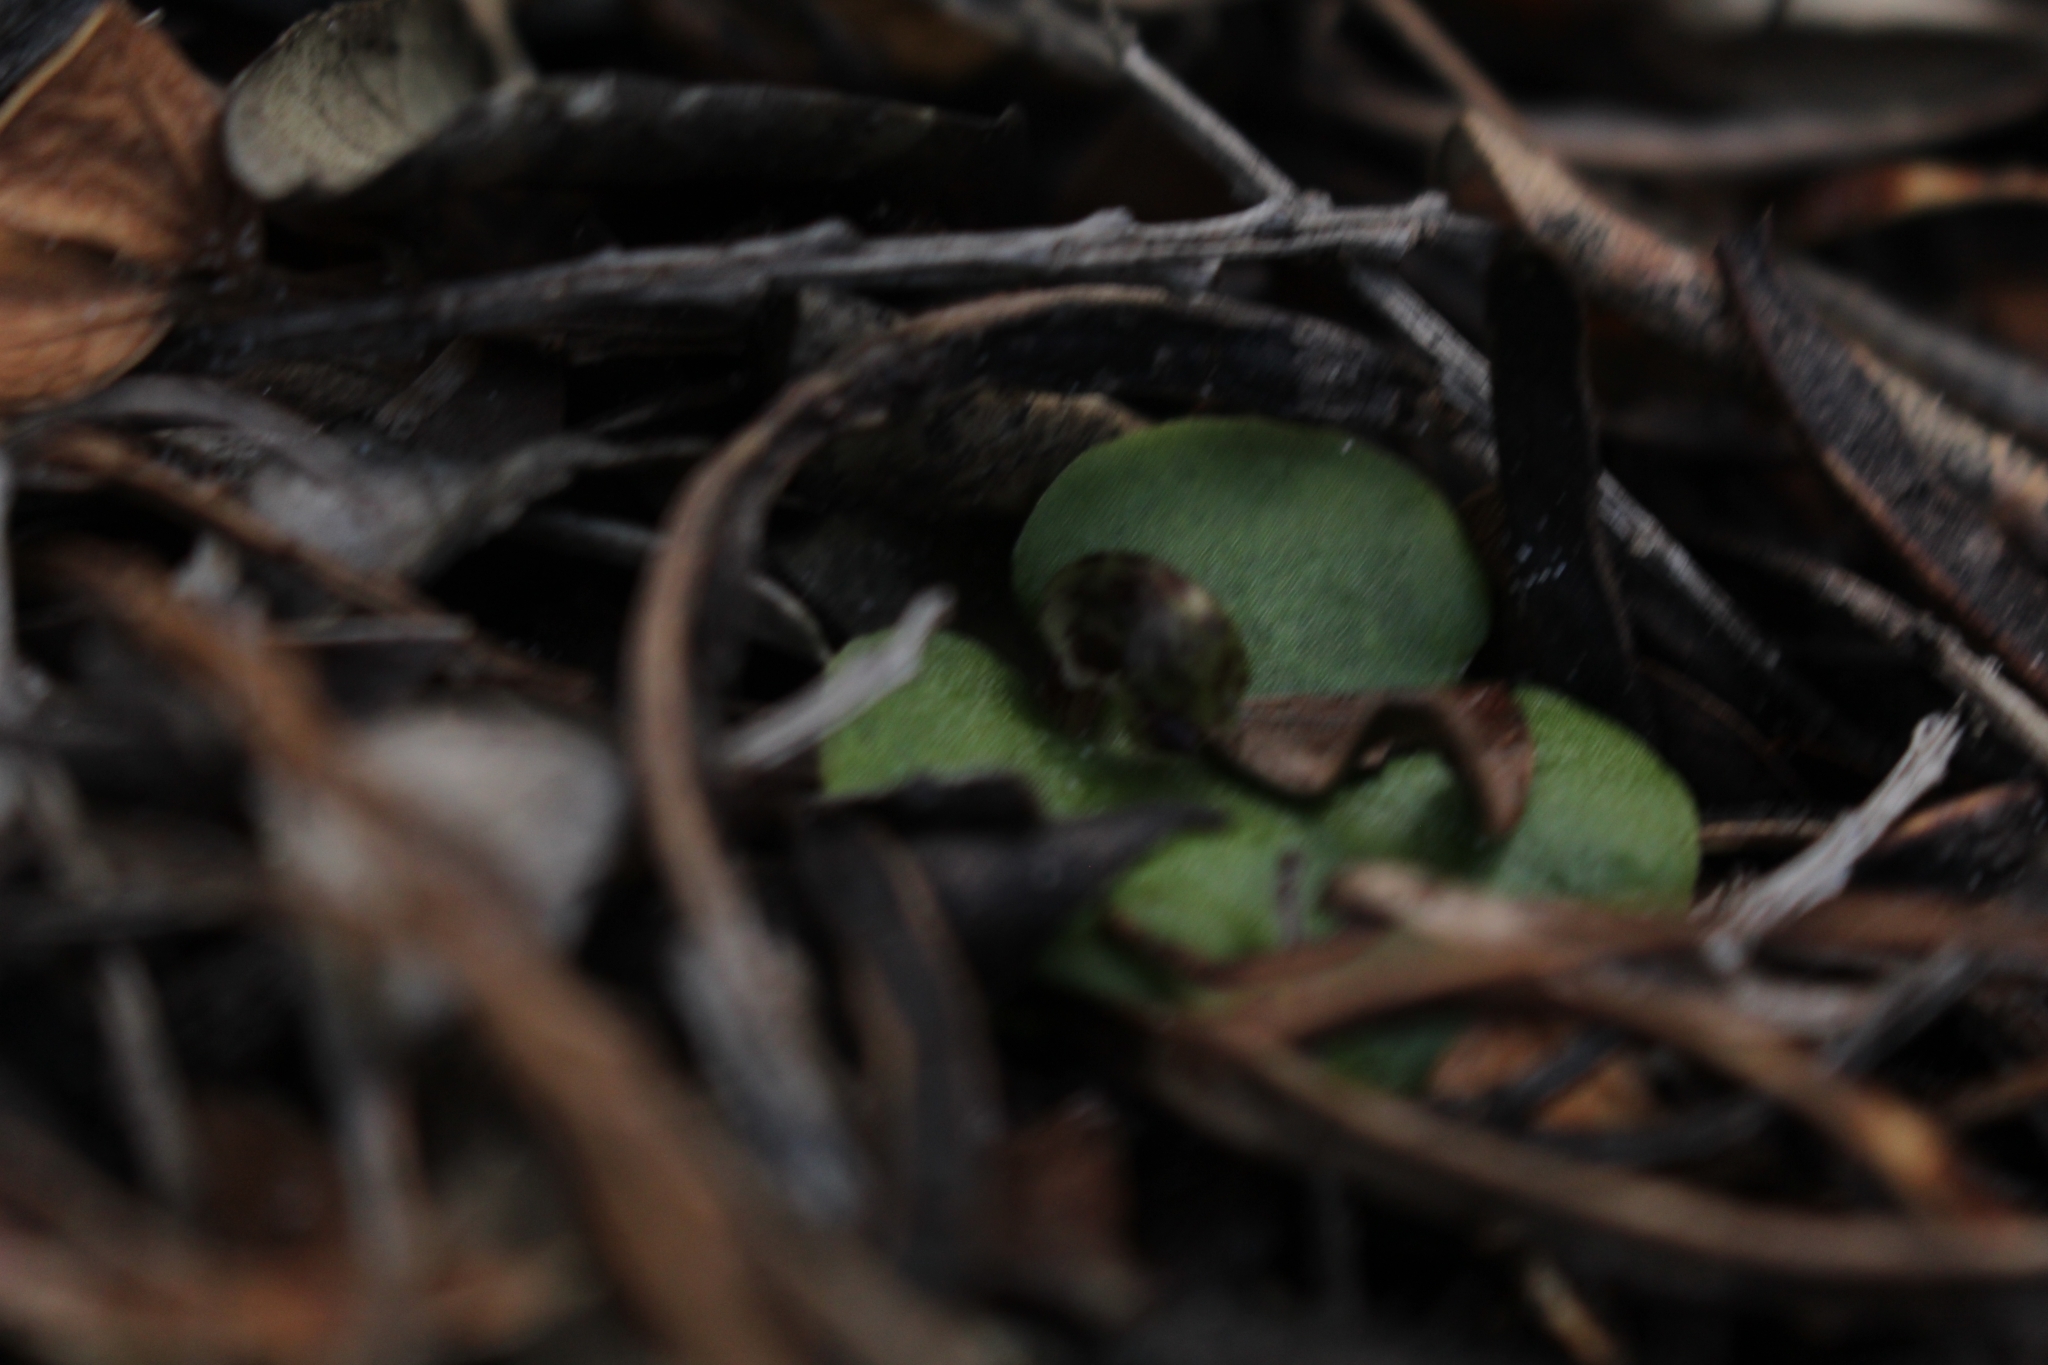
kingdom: Plantae
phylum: Tracheophyta
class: Liliopsida
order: Asparagales
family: Orchidaceae
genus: Corybas
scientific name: Corybas limpidus
